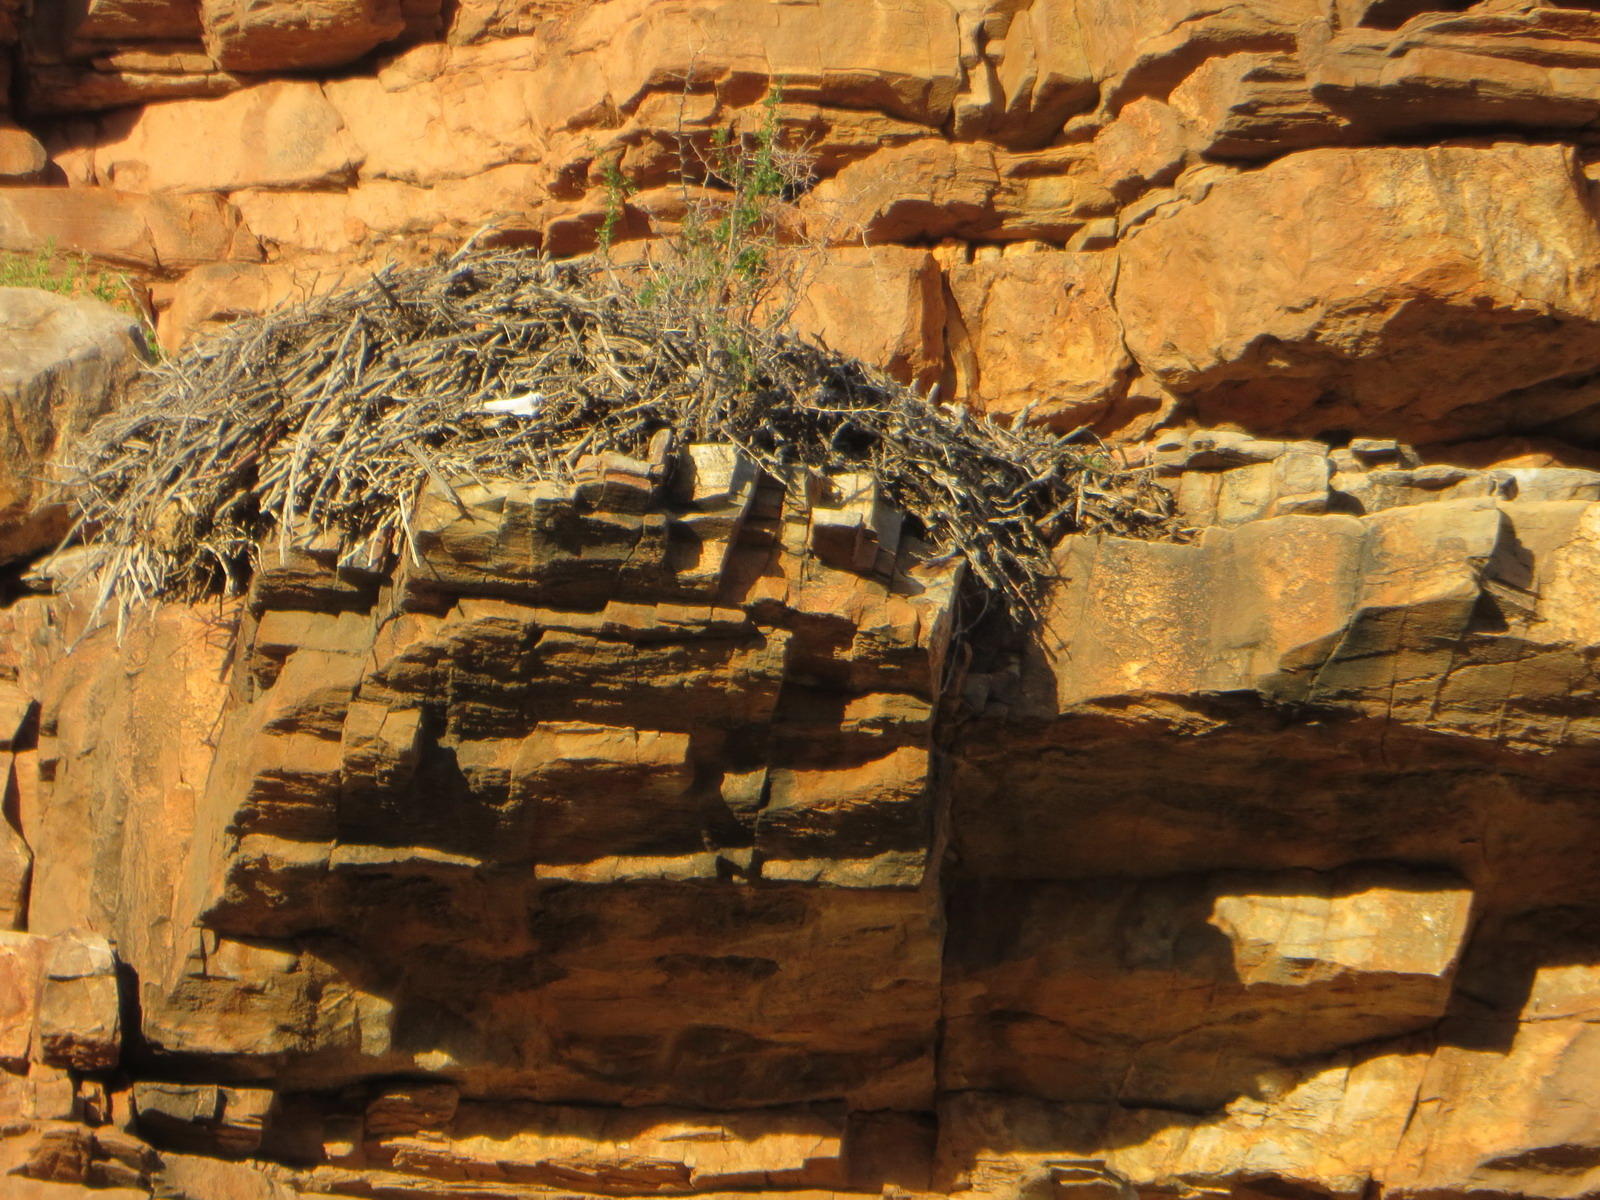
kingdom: Animalia
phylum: Chordata
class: Aves
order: Pelecaniformes
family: Scopidae
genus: Scopus
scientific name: Scopus umbretta
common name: Hamerkop
